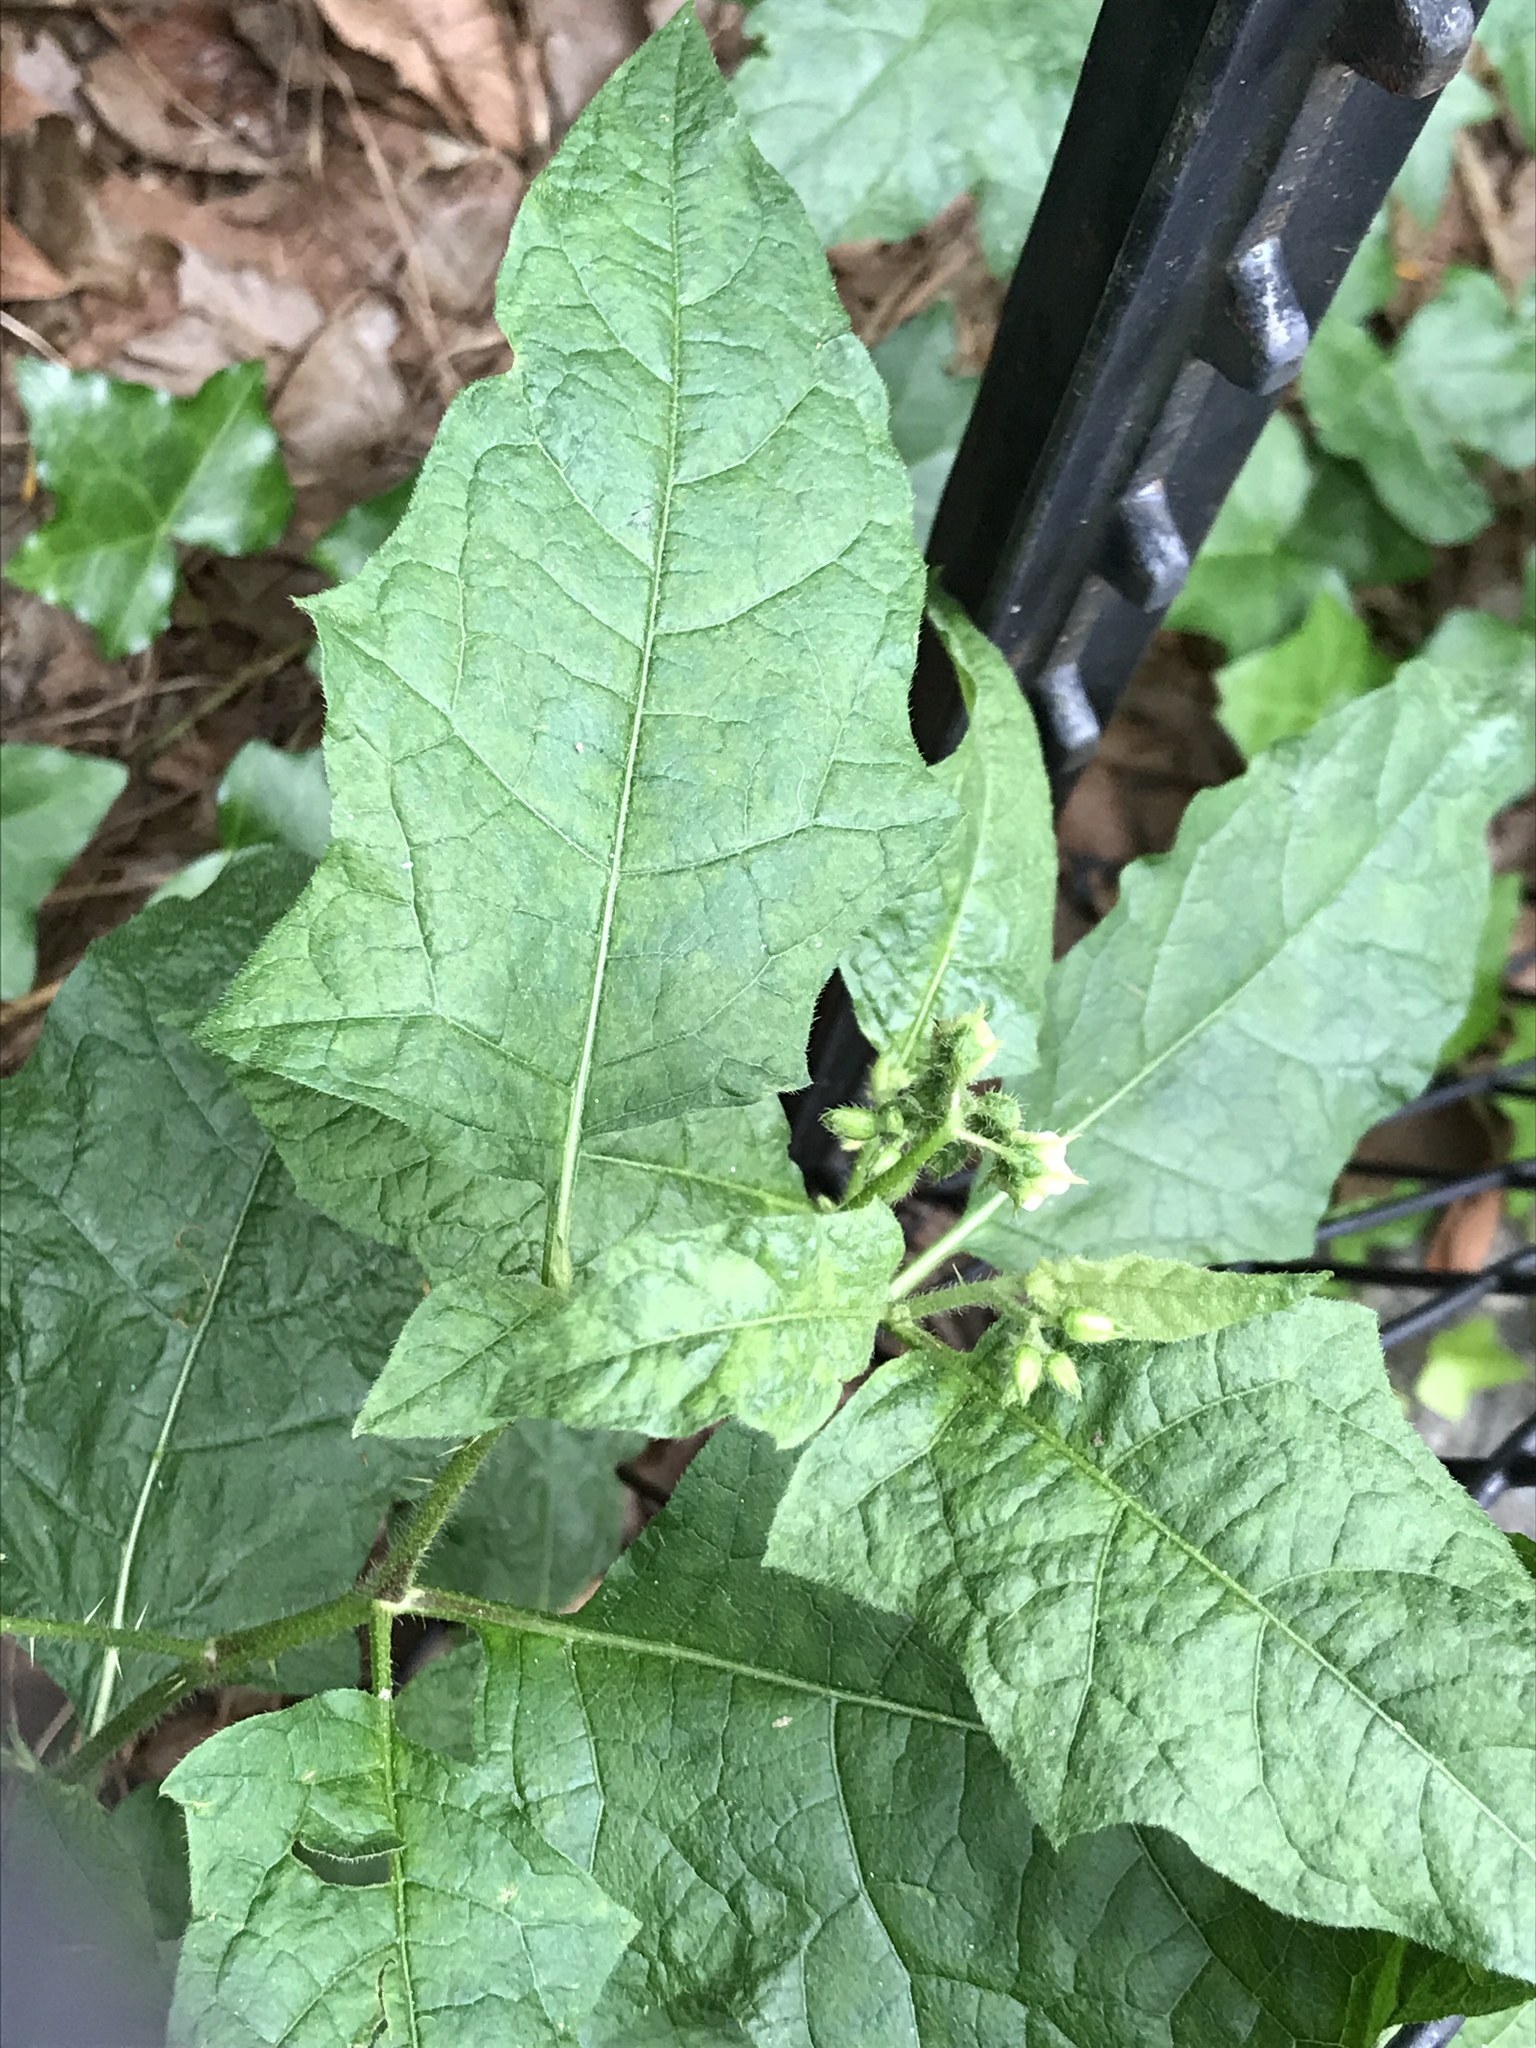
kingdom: Plantae
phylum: Tracheophyta
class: Magnoliopsida
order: Solanales
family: Solanaceae
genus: Solanum
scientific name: Solanum carolinense
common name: Horse-nettle
